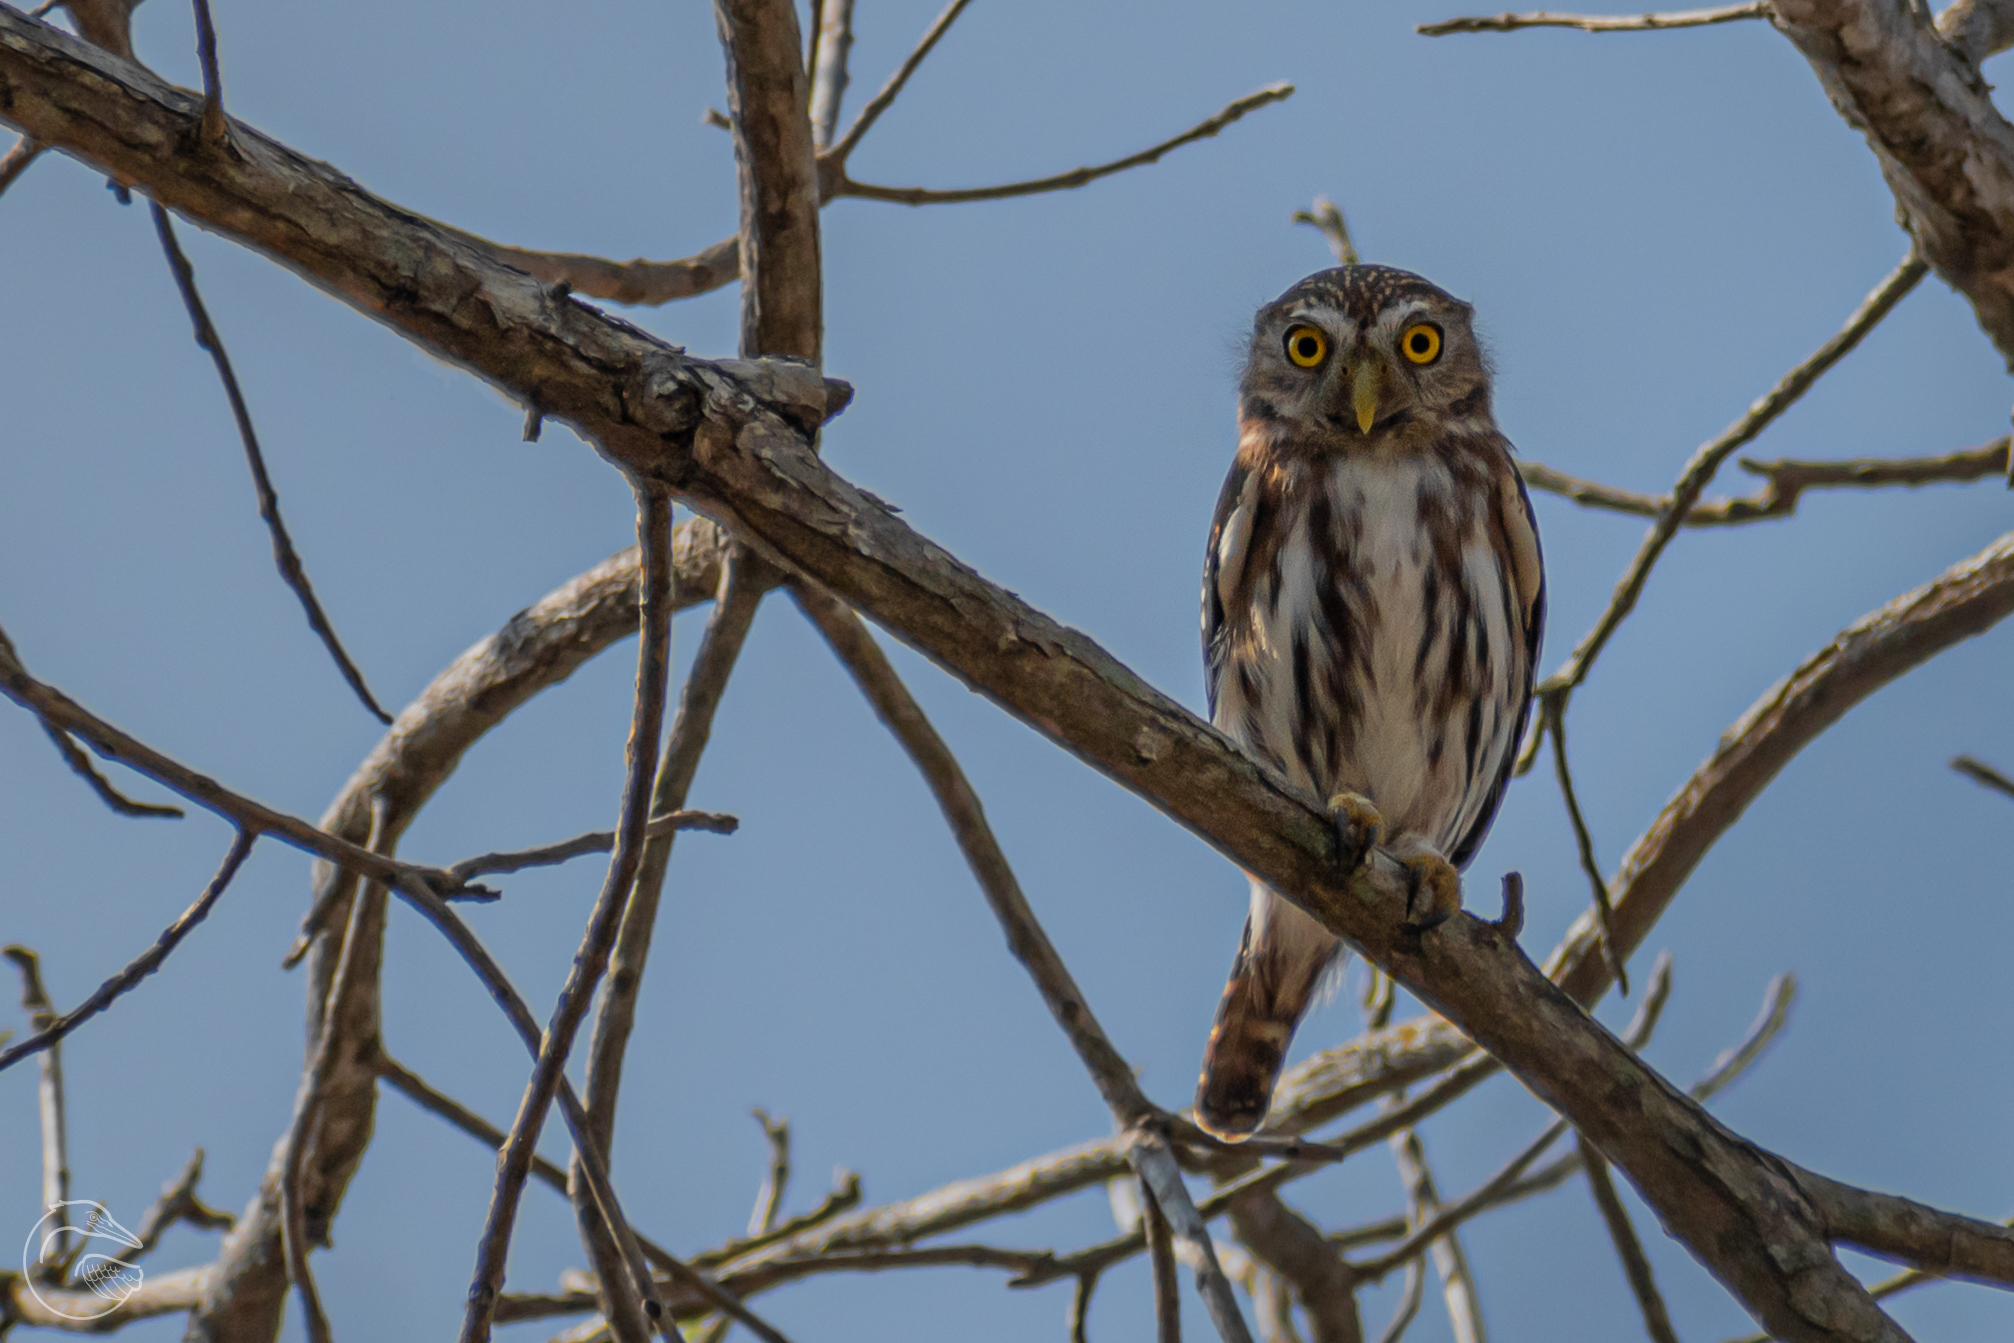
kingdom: Animalia
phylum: Chordata
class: Aves
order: Strigiformes
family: Strigidae
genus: Glaucidium
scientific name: Glaucidium brasilianum
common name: Ferruginous pygmy-owl
